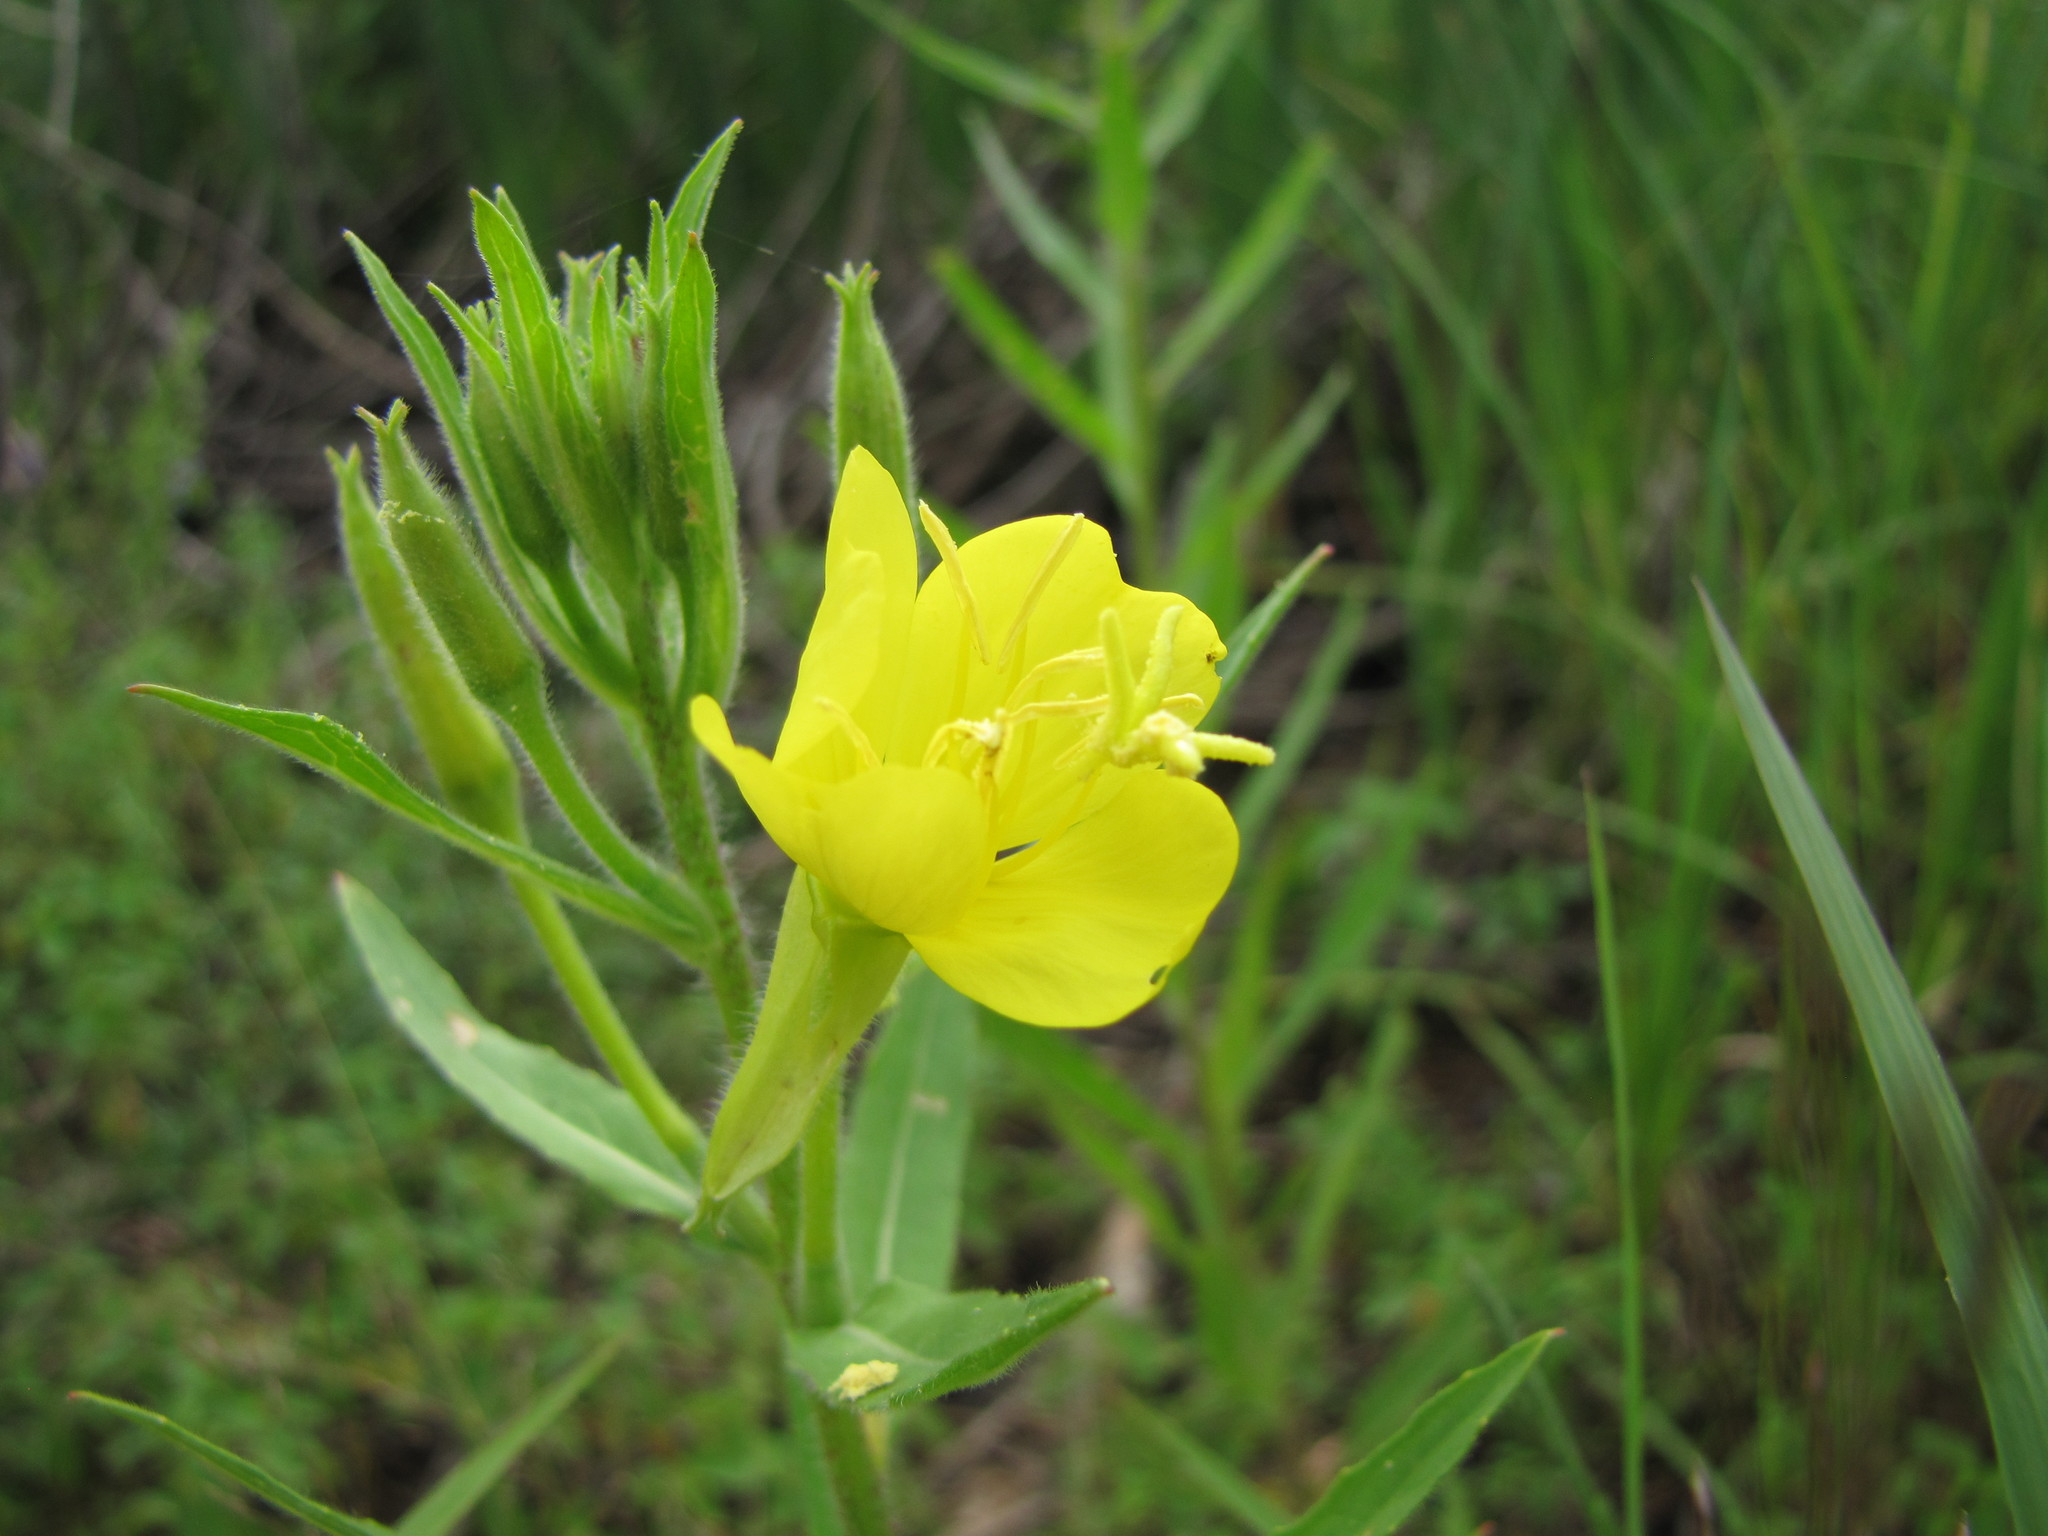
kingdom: Plantae
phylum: Tracheophyta
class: Magnoliopsida
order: Myrtales
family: Onagraceae
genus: Oenothera
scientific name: Oenothera biennis
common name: Common evening-primrose
